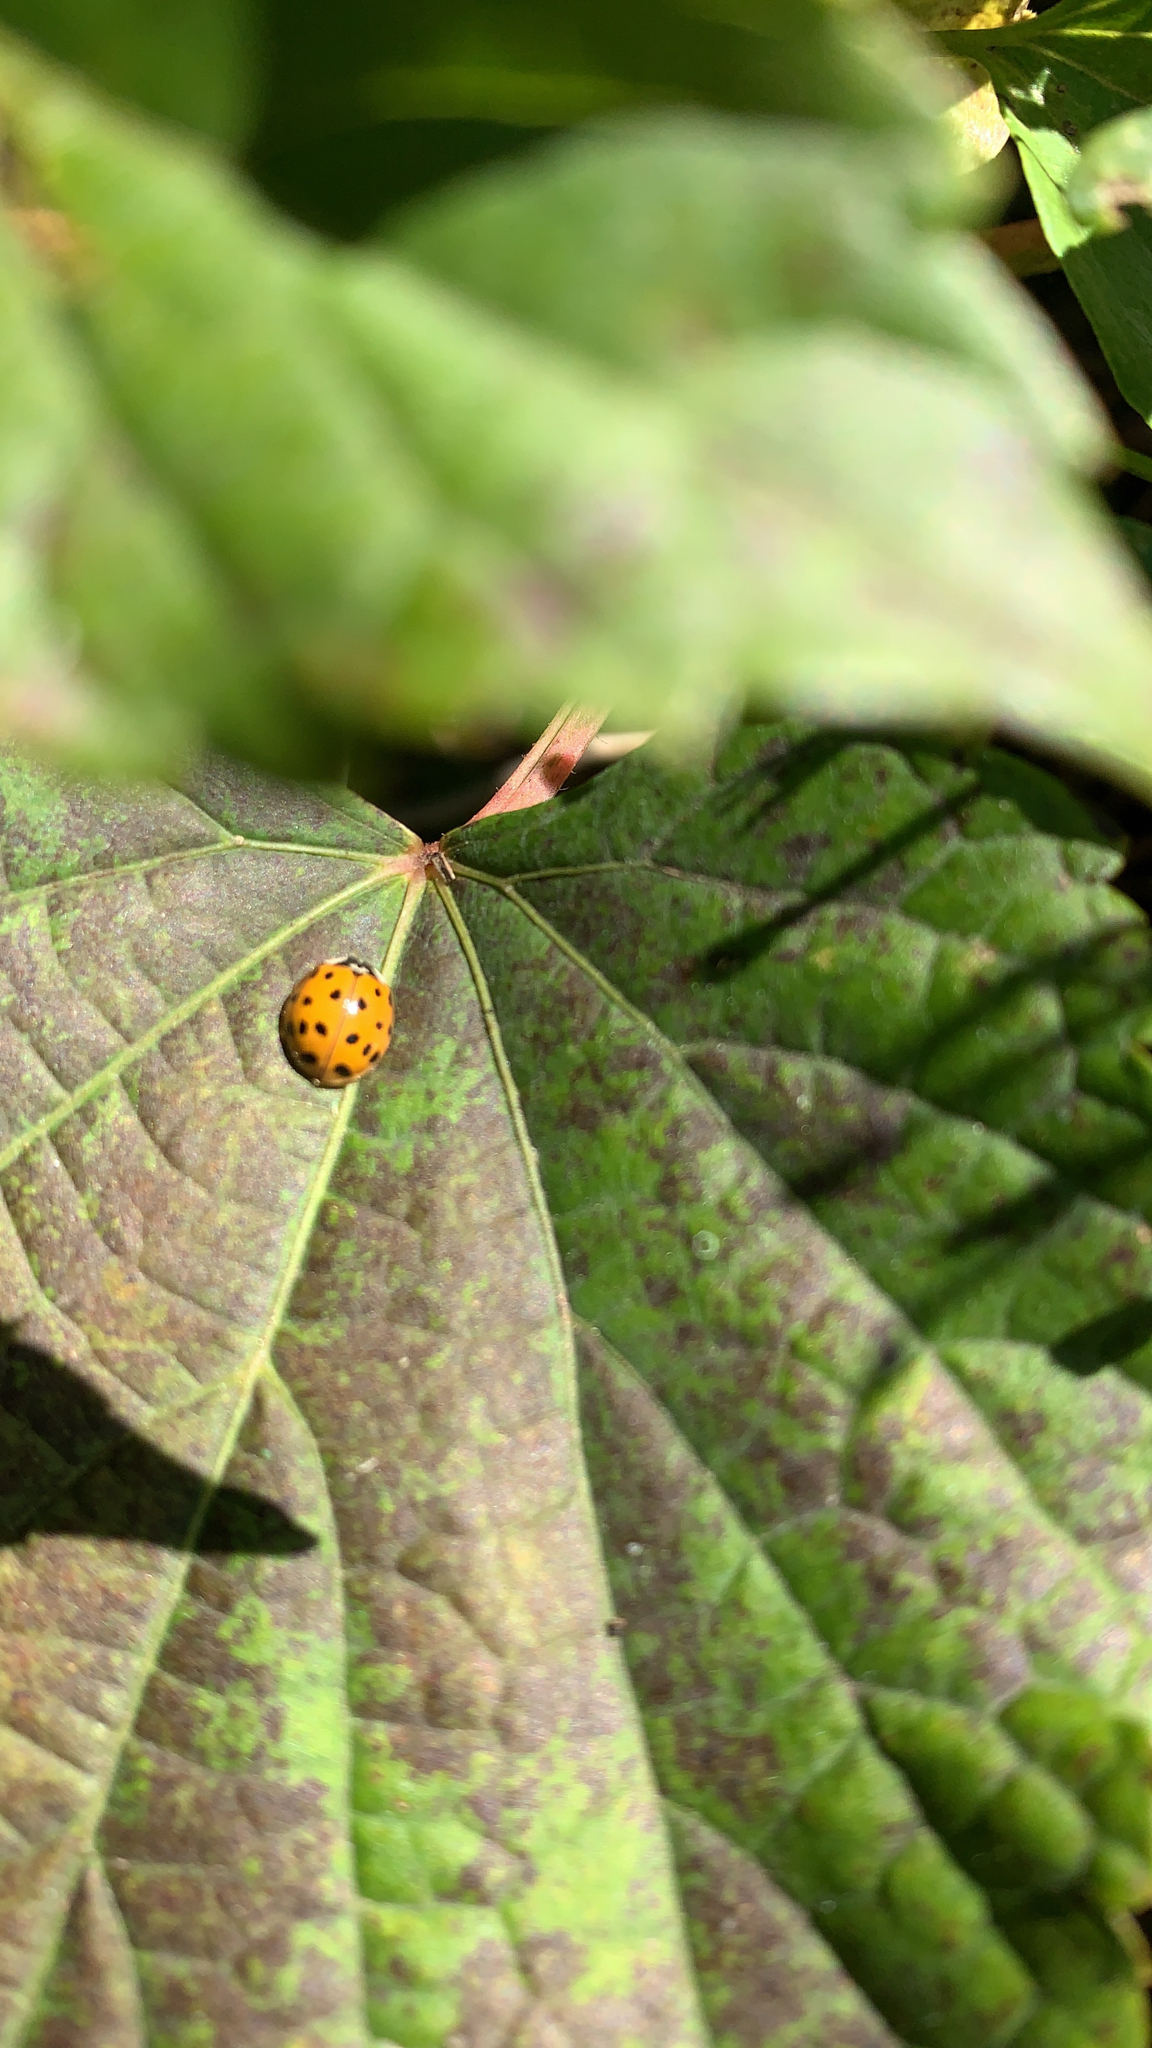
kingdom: Animalia
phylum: Arthropoda
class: Insecta
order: Coleoptera
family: Coccinellidae
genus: Harmonia
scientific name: Harmonia axyridis
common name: Harlequin ladybird
